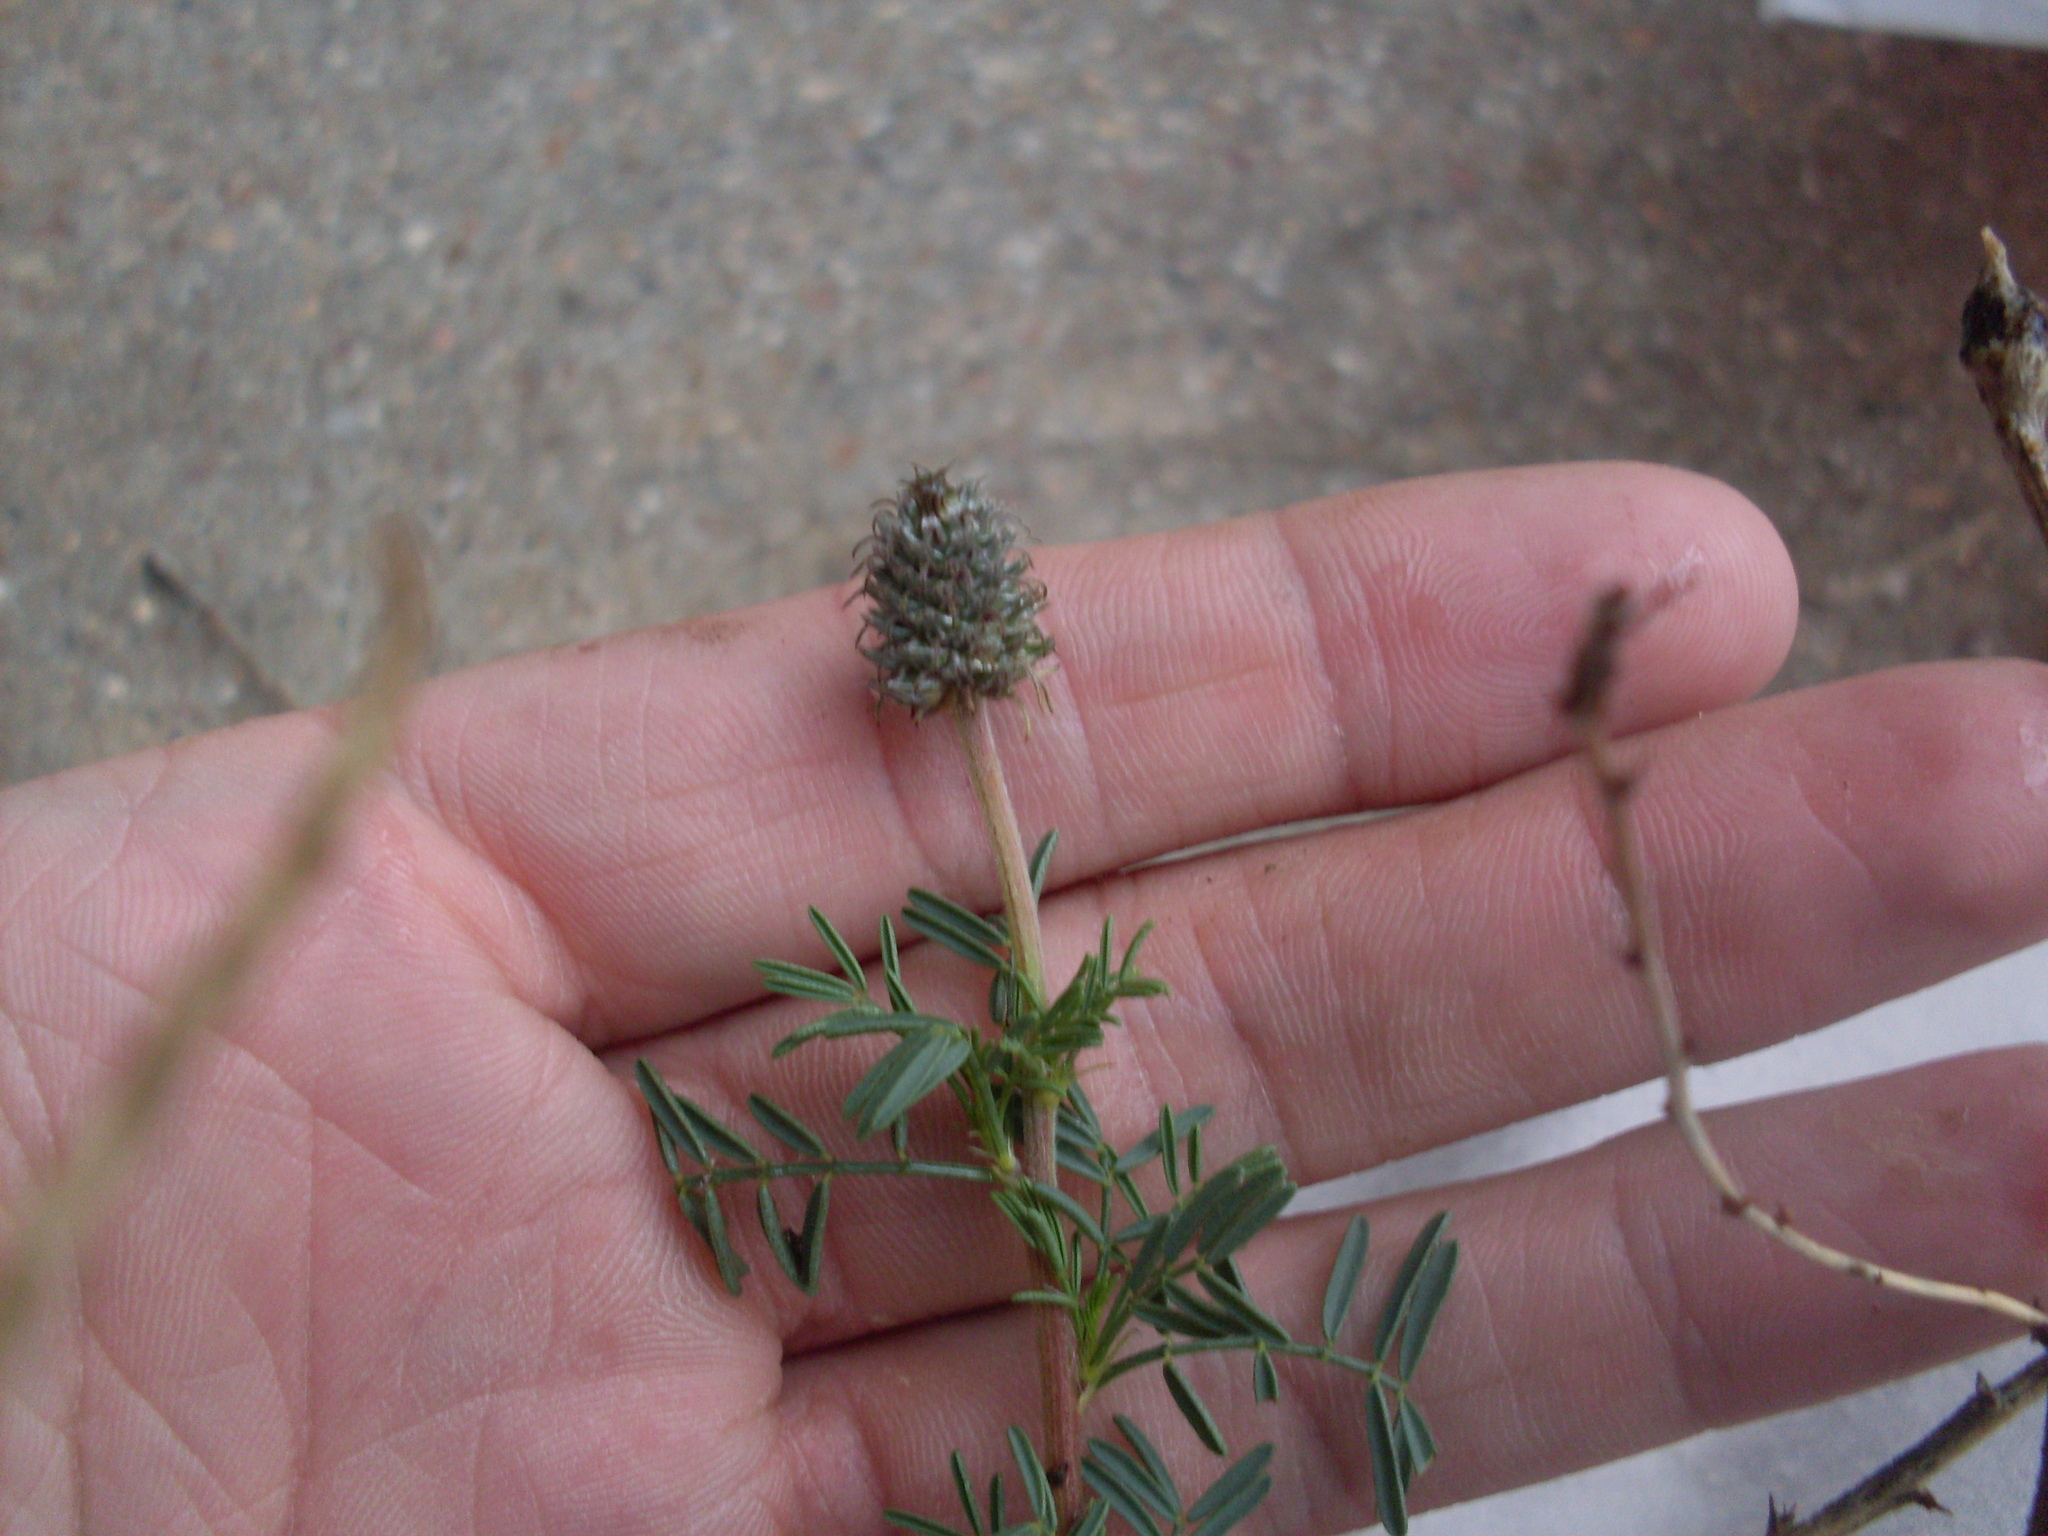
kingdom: Plantae
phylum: Tracheophyta
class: Magnoliopsida
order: Fabales
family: Fabaceae
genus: Dalea
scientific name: Dalea reverchonii
